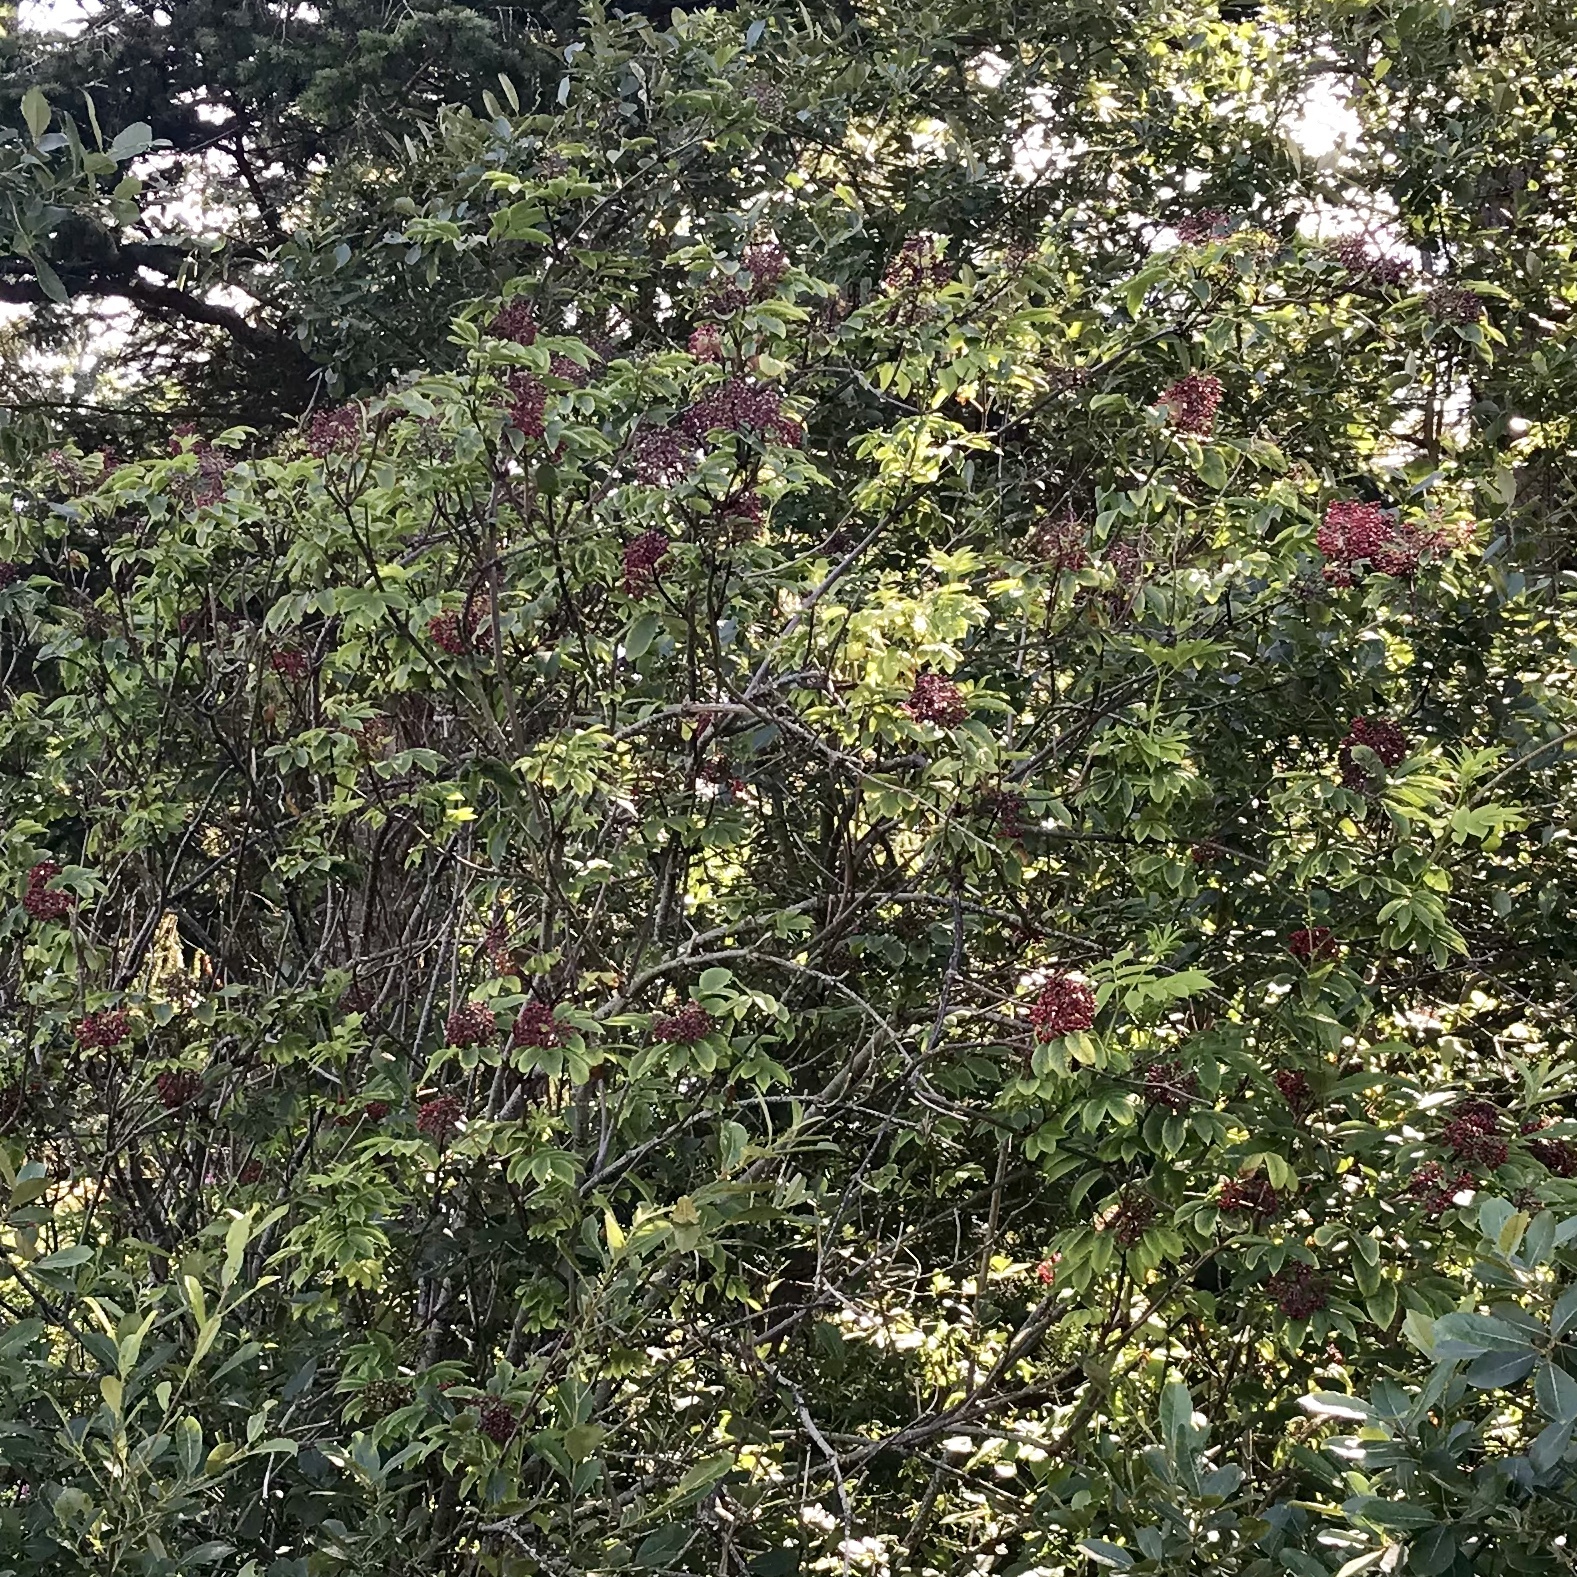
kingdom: Plantae
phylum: Tracheophyta
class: Magnoliopsida
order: Dipsacales
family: Viburnaceae
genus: Sambucus
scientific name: Sambucus racemosa
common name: Red-berried elder
